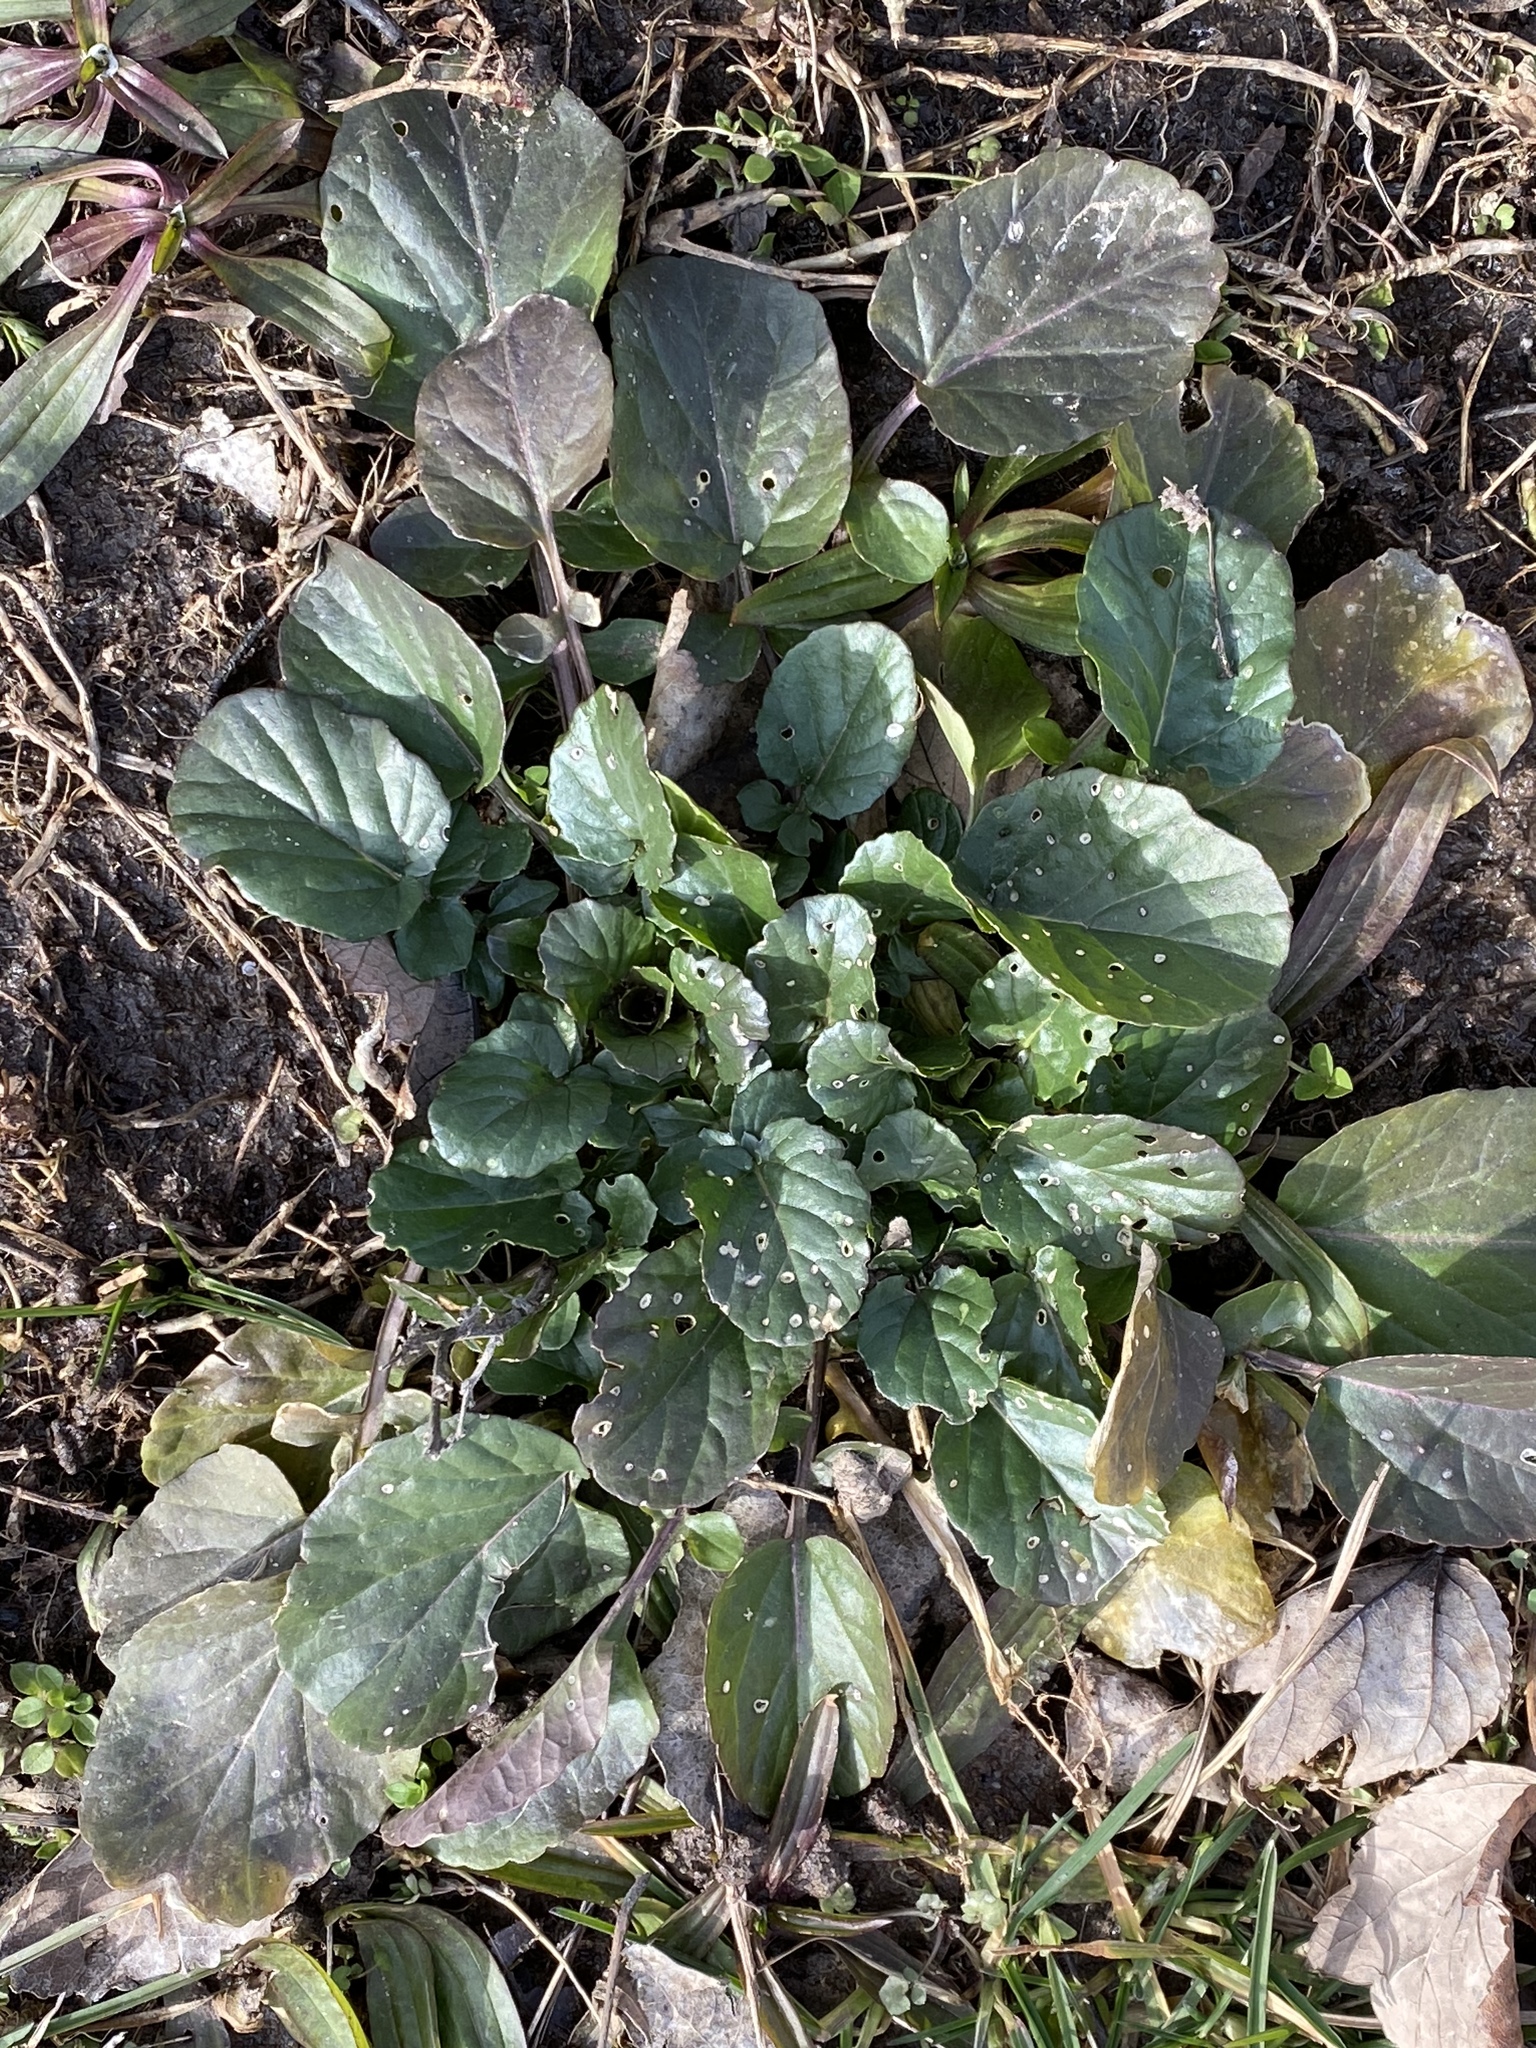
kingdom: Plantae
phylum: Tracheophyta
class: Magnoliopsida
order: Brassicales
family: Brassicaceae
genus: Barbarea
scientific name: Barbarea vulgaris
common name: Cressy-greens
